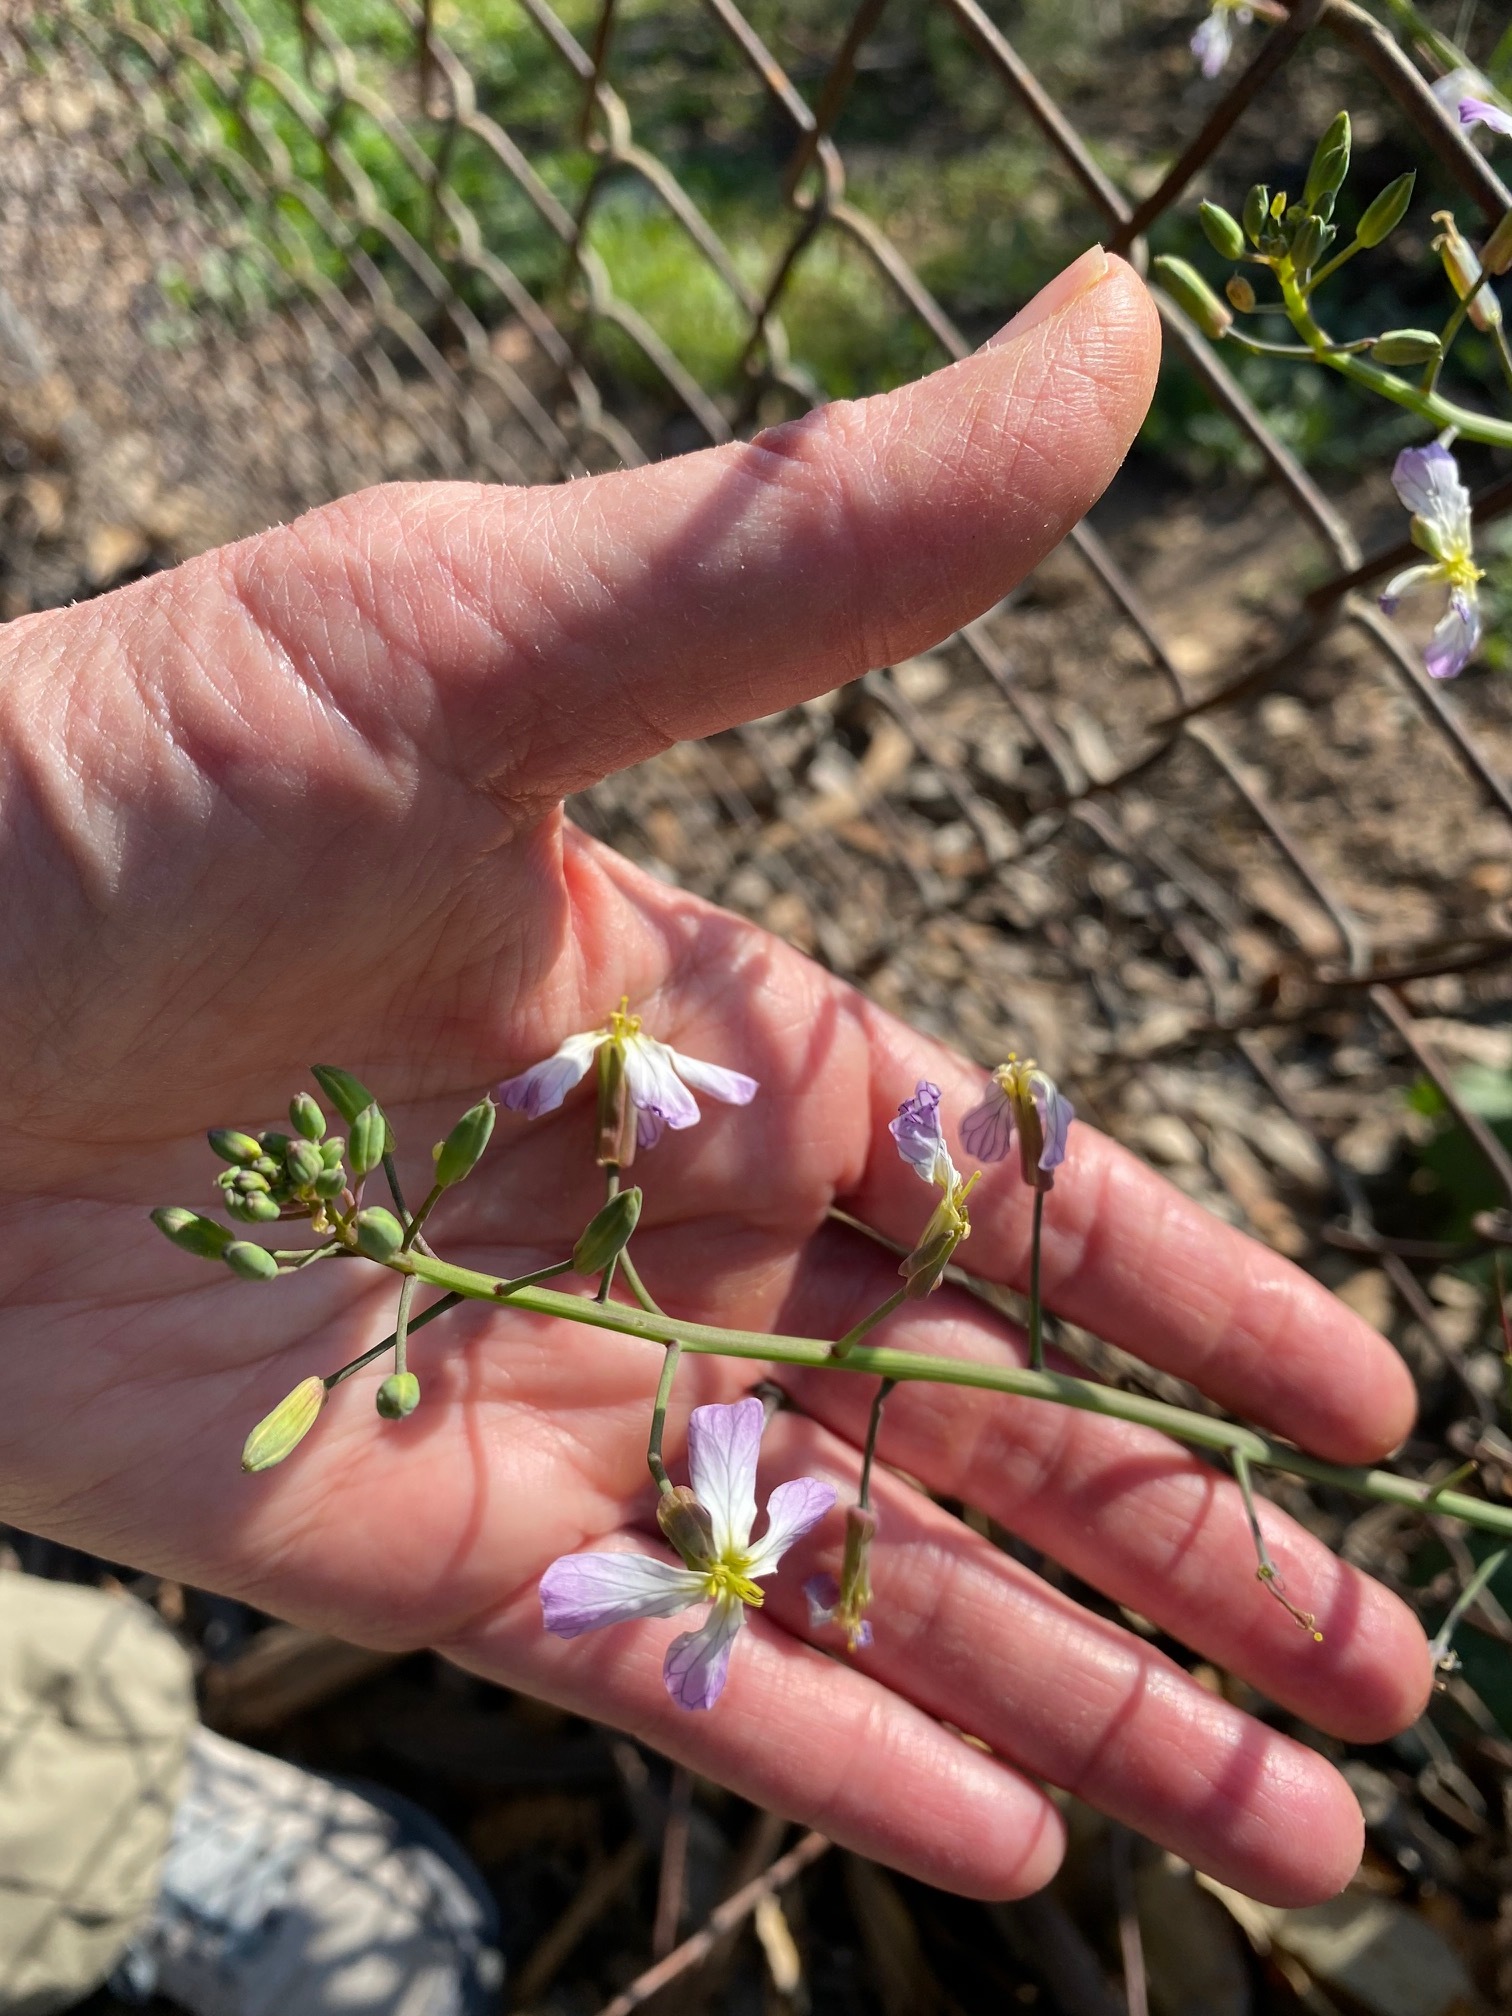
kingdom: Plantae
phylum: Tracheophyta
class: Magnoliopsida
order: Brassicales
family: Brassicaceae
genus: Raphanus
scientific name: Raphanus sativus
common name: Cultivated radish
